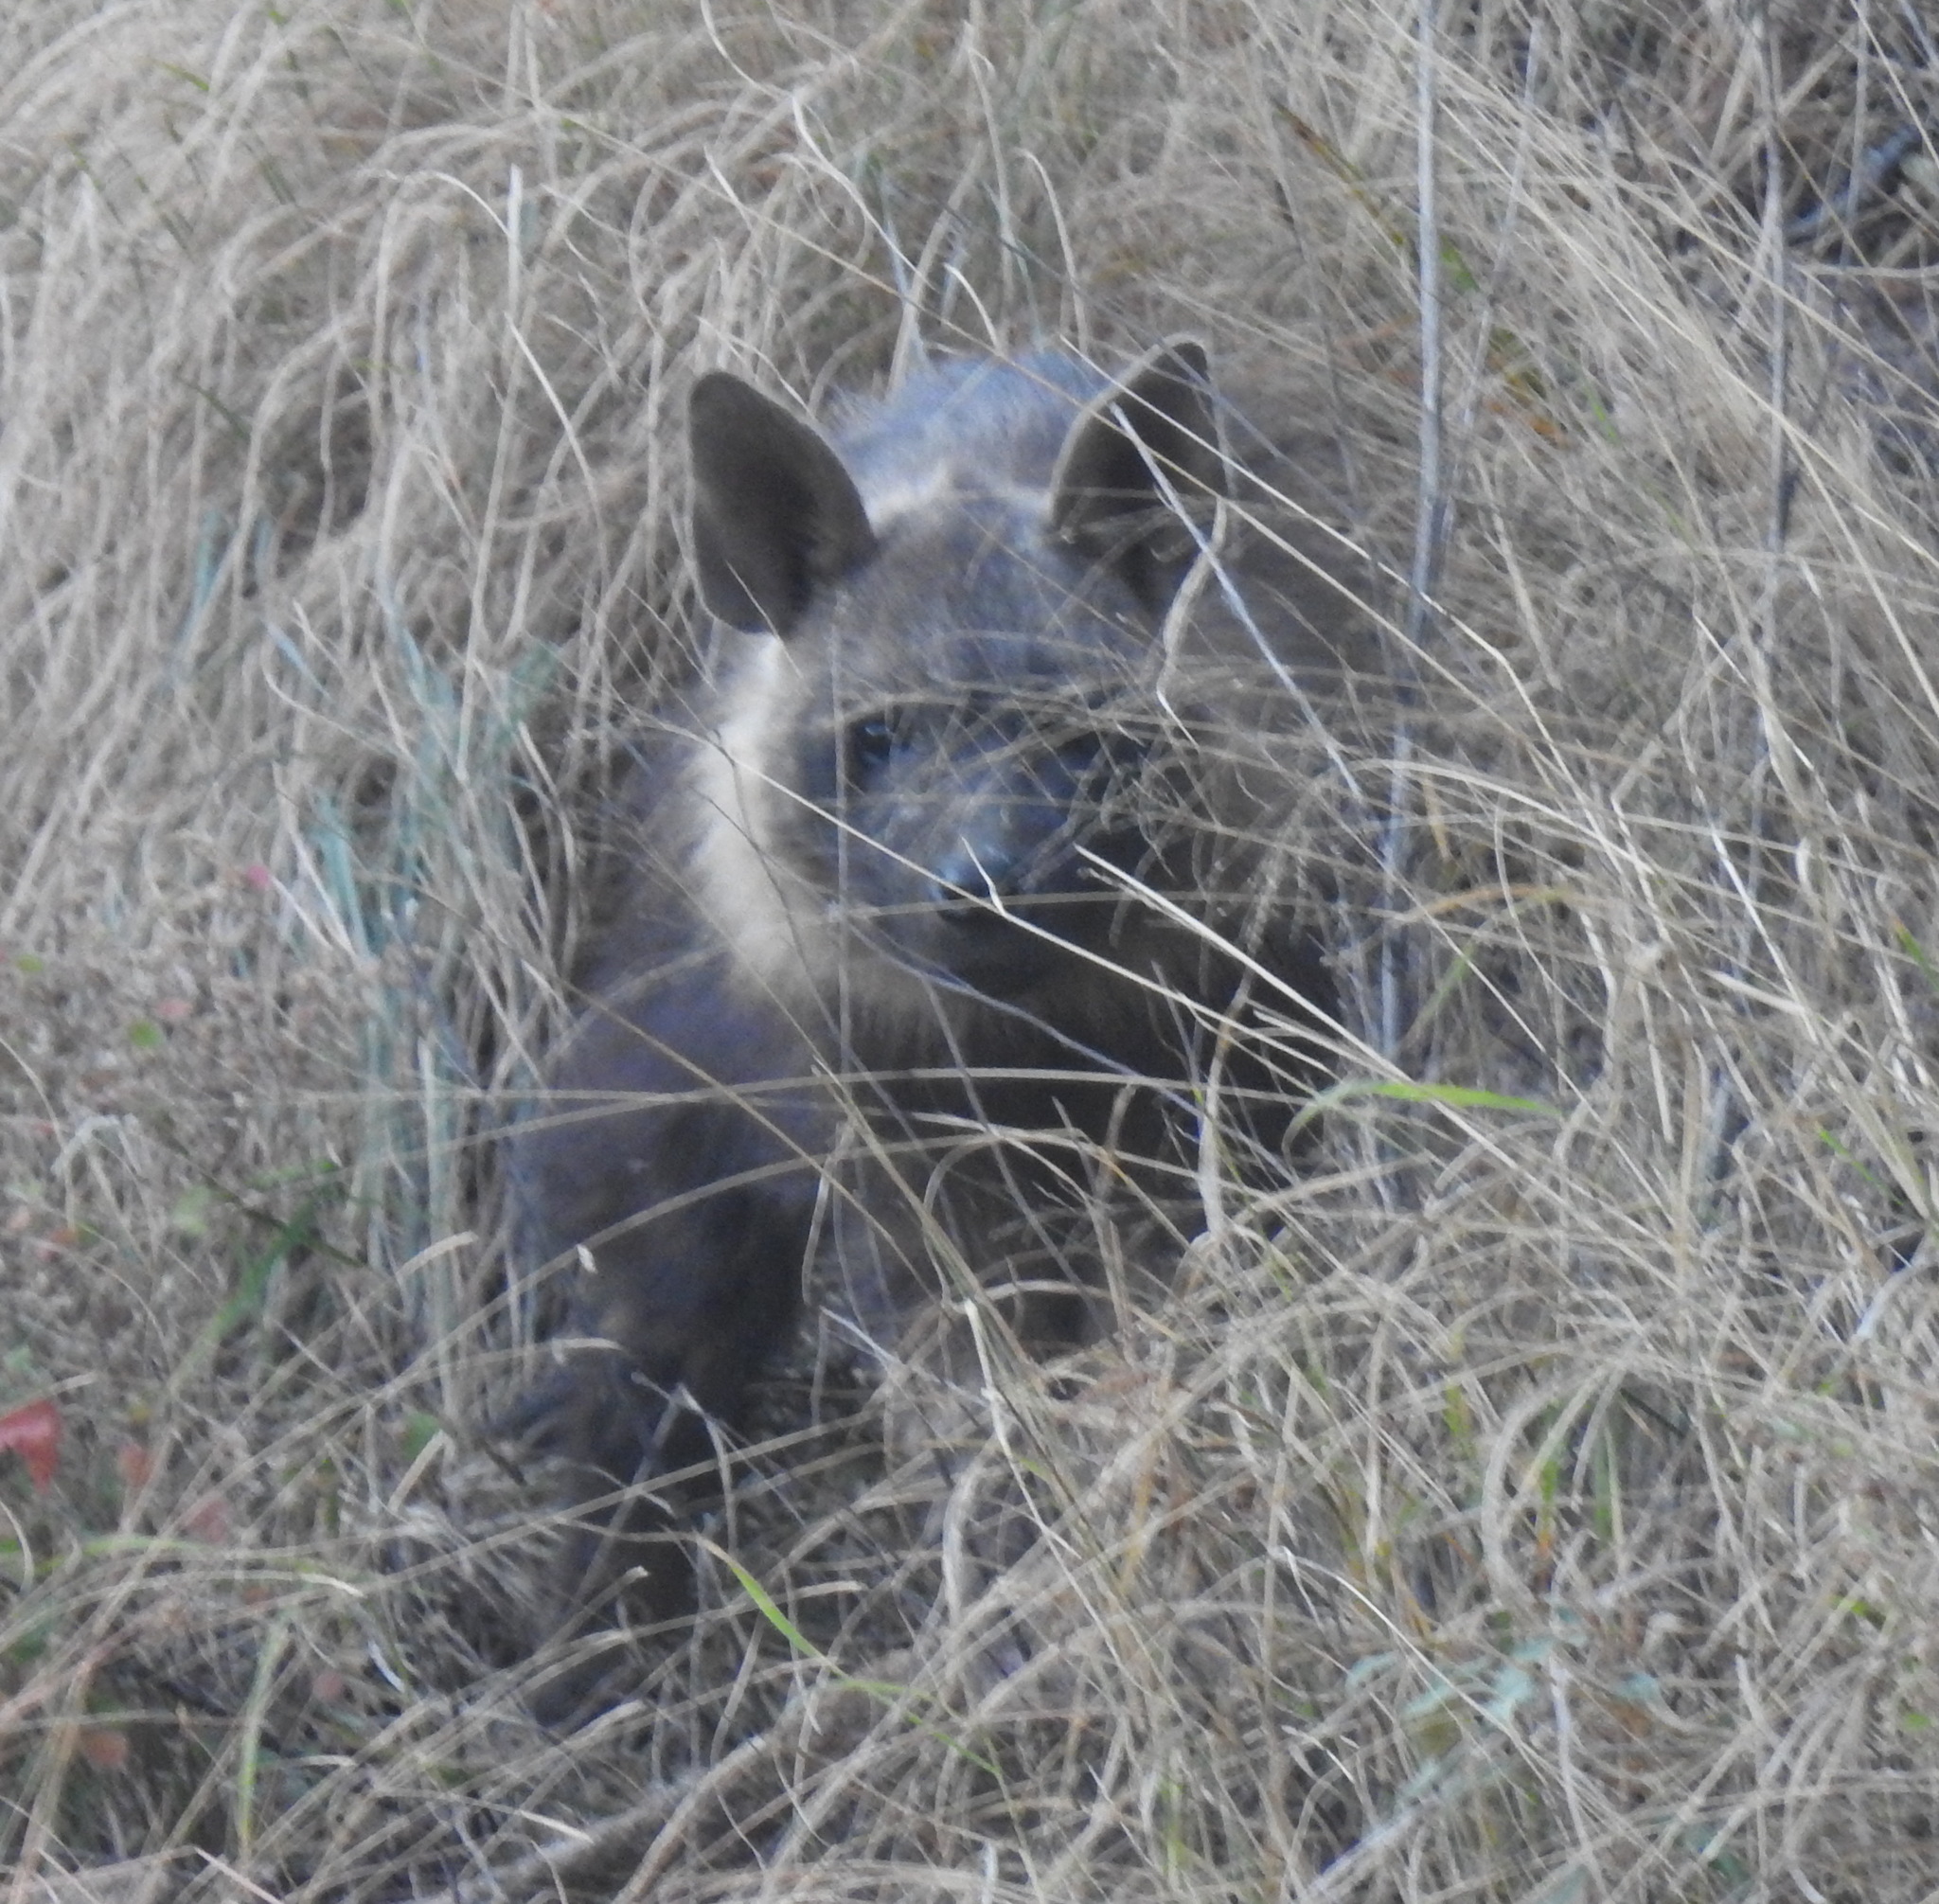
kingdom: Animalia
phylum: Chordata
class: Mammalia
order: Carnivora
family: Hyaenidae
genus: Hyaena
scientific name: Hyaena brunnea
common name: Brown hyena
